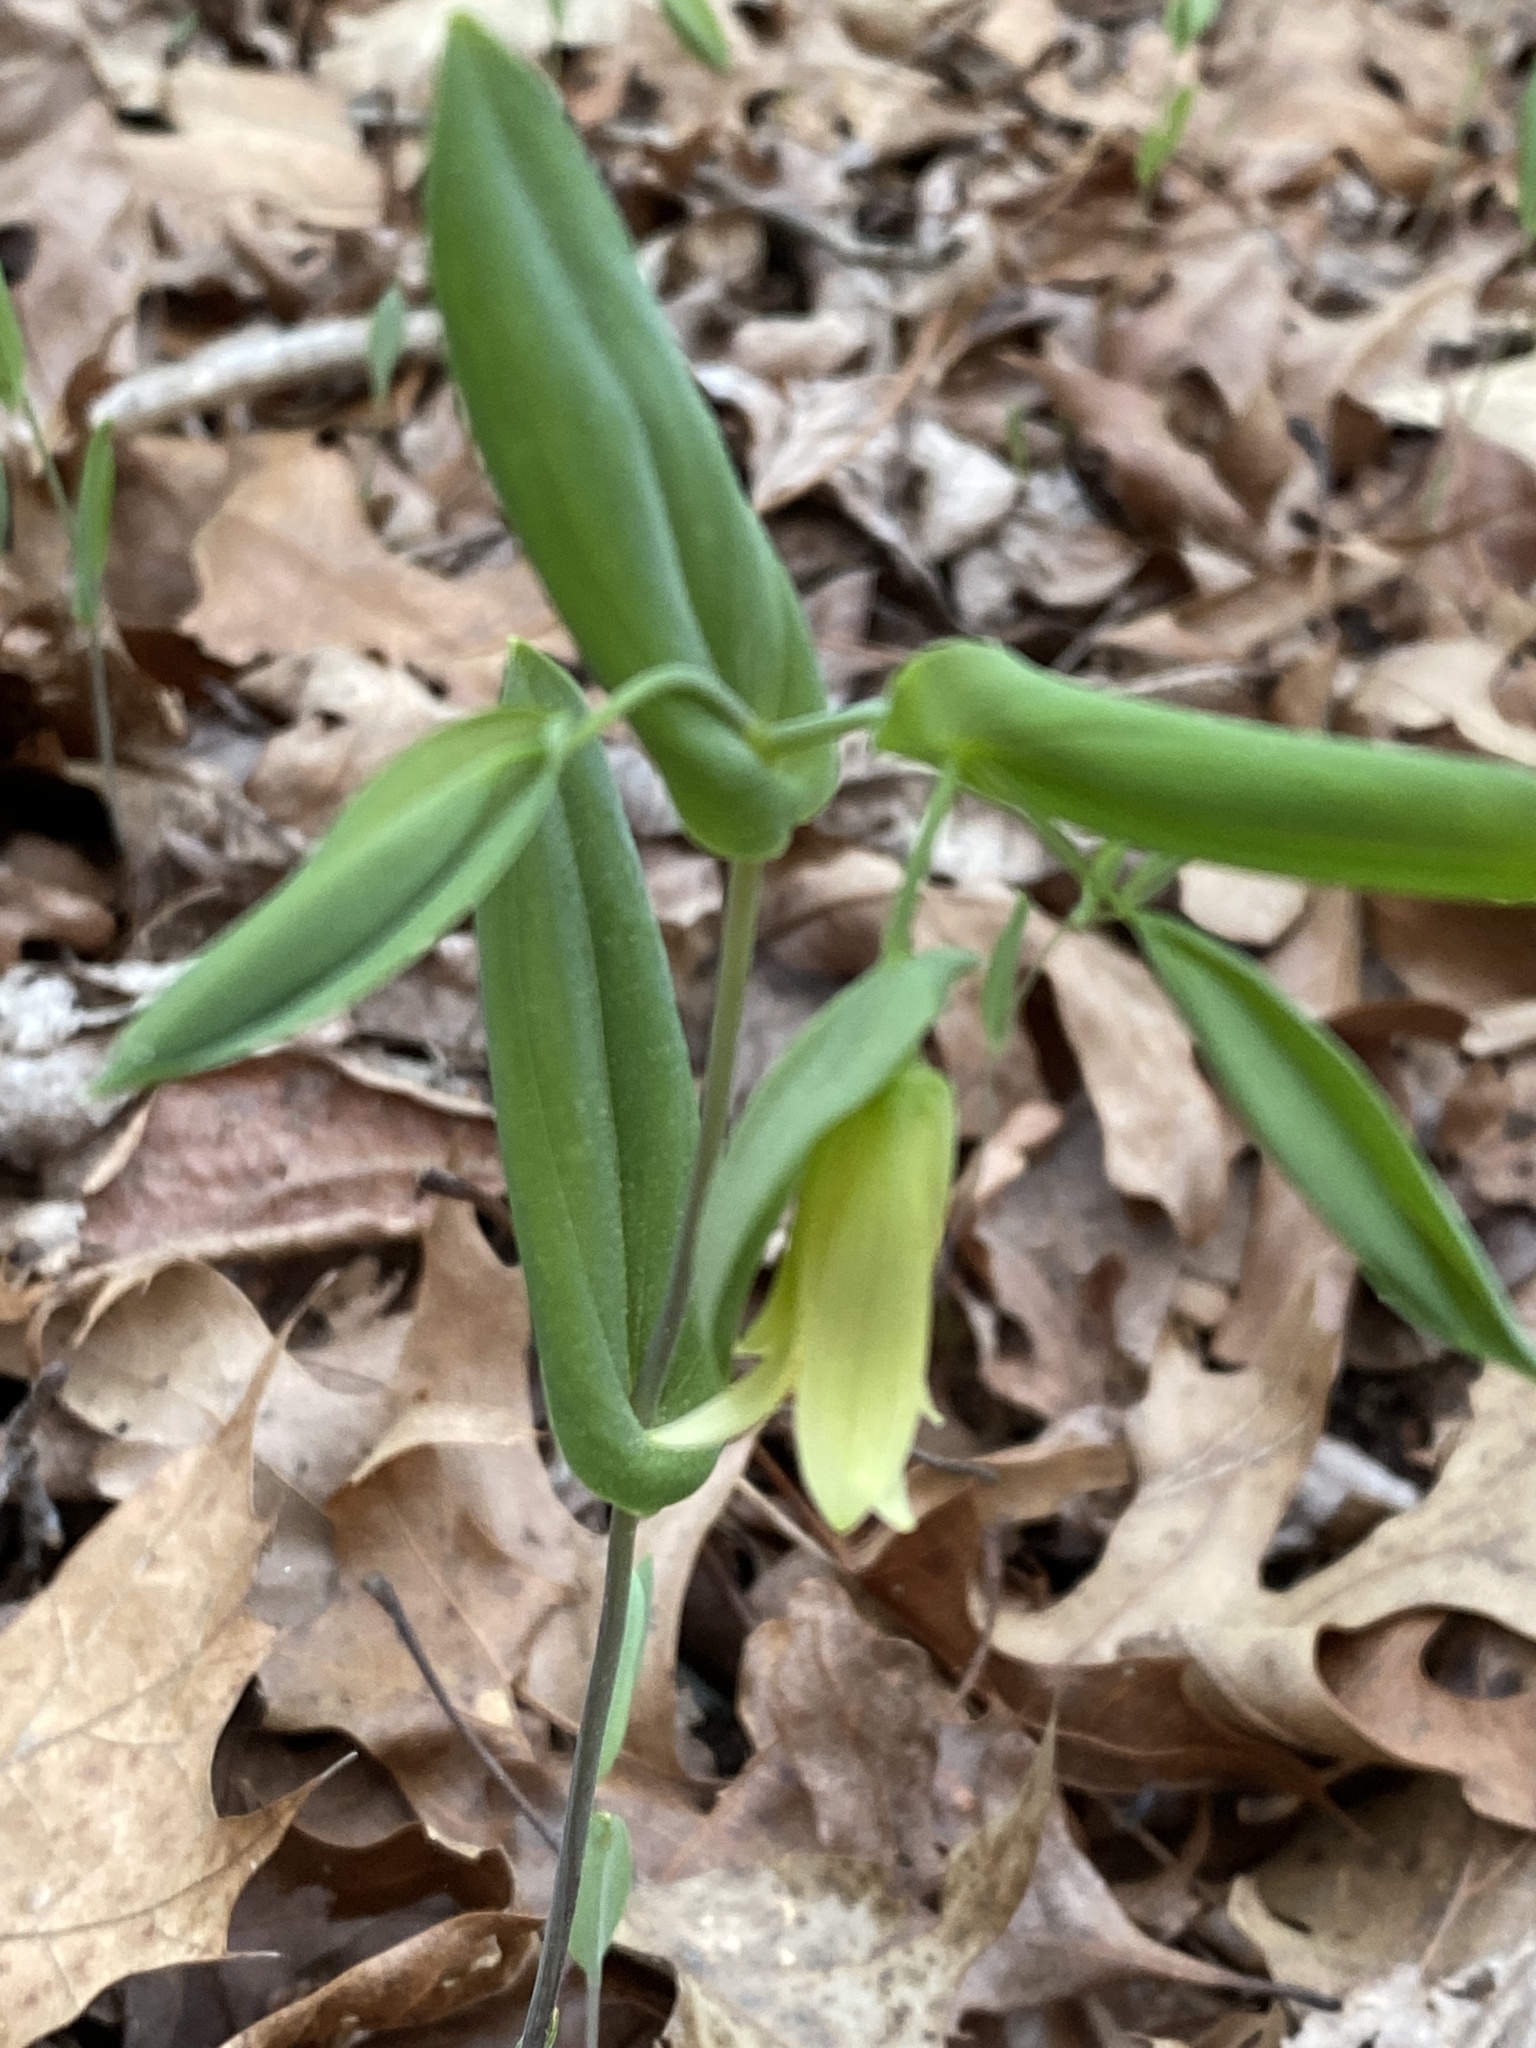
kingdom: Plantae
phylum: Tracheophyta
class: Liliopsida
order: Liliales
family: Colchicaceae
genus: Uvularia
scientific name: Uvularia perfoliata
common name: Perfoliate bellwort
